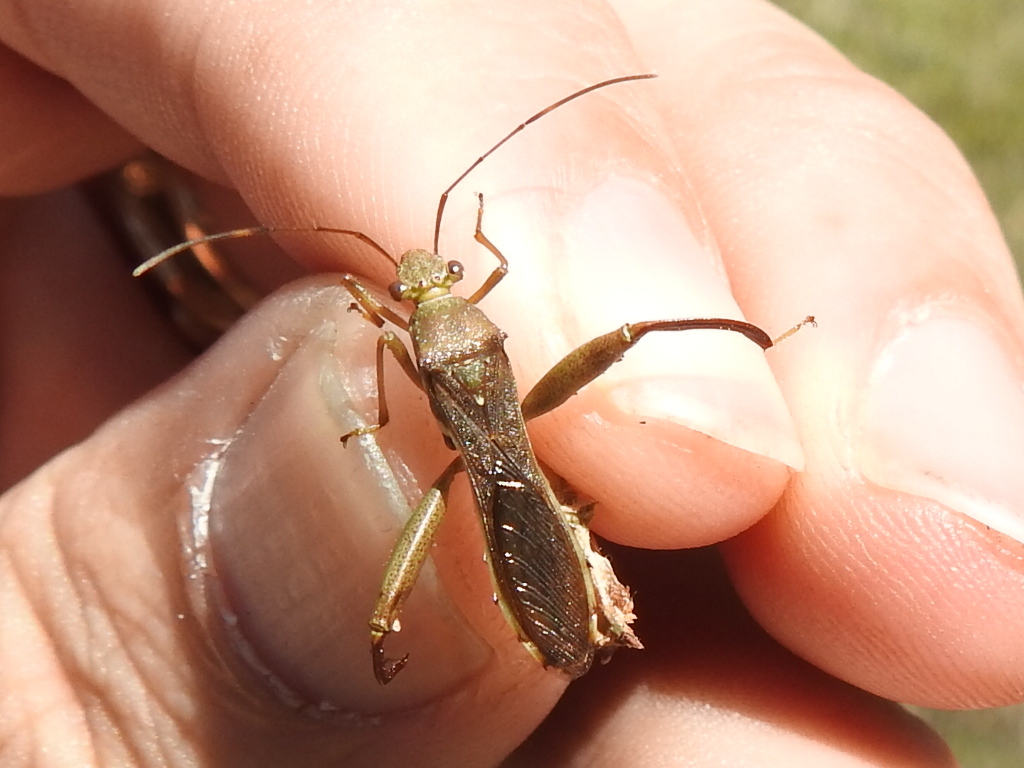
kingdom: Animalia
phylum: Arthropoda
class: Insecta
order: Hemiptera
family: Alydidae
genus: Hyalymenus
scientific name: Hyalymenus tarsatus
